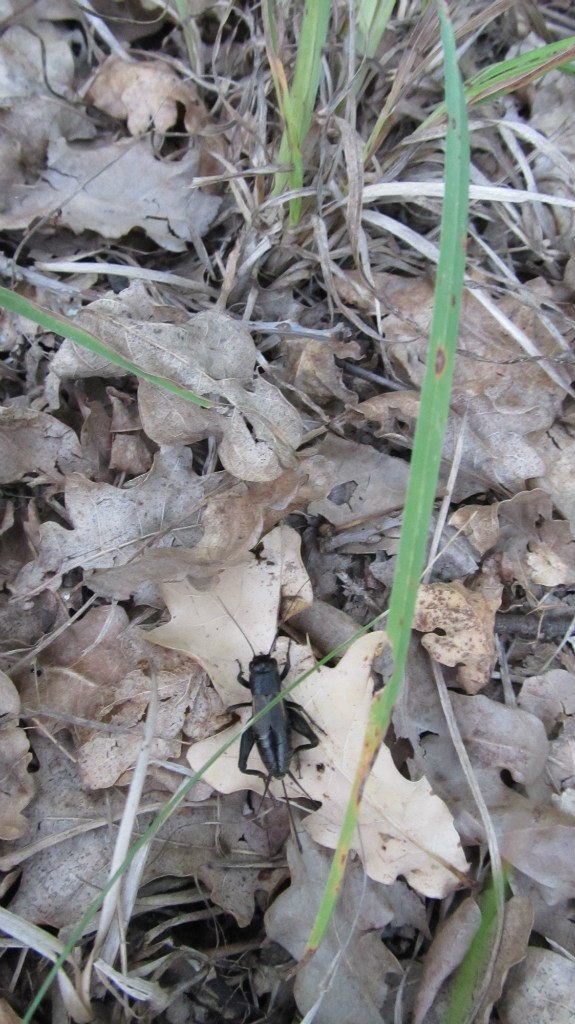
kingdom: Animalia
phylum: Arthropoda
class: Insecta
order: Orthoptera
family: Gryllidae
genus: Melanogryllus
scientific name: Melanogryllus desertus
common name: Desert cricket
